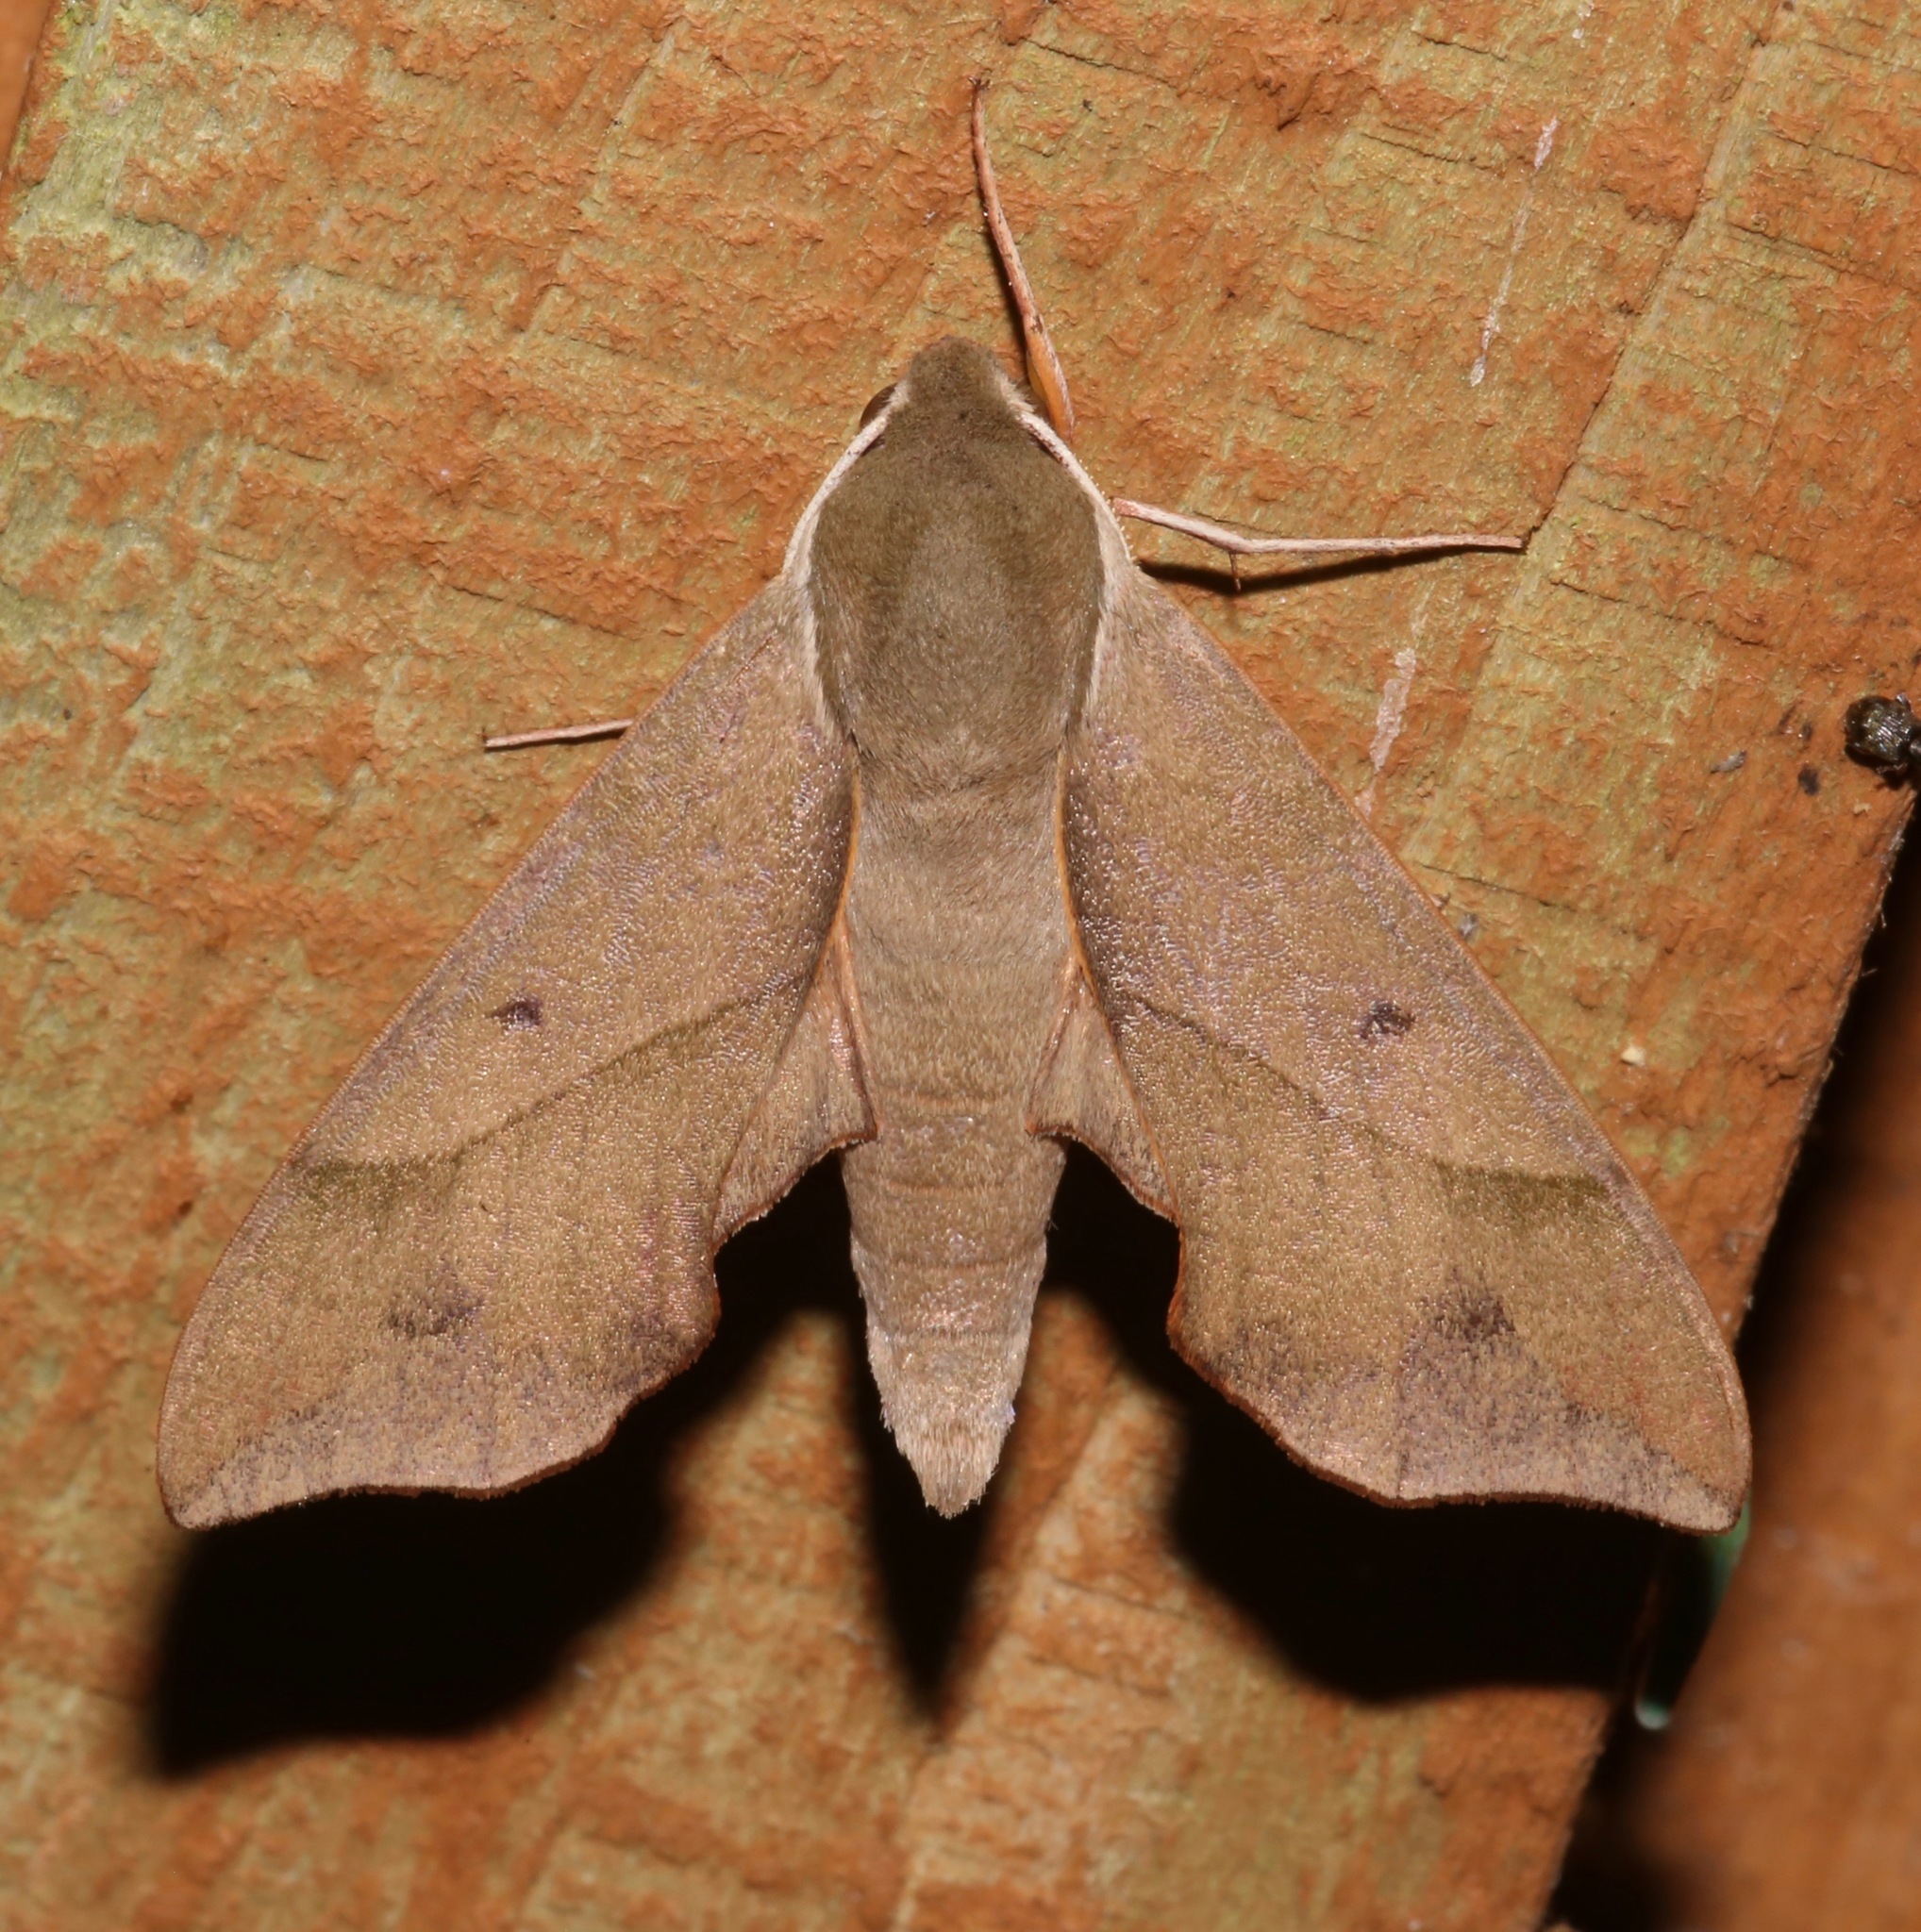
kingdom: Animalia
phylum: Arthropoda
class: Insecta
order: Lepidoptera
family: Sphingidae
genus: Darapsa
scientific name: Darapsa myron
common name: Hog sphinx
